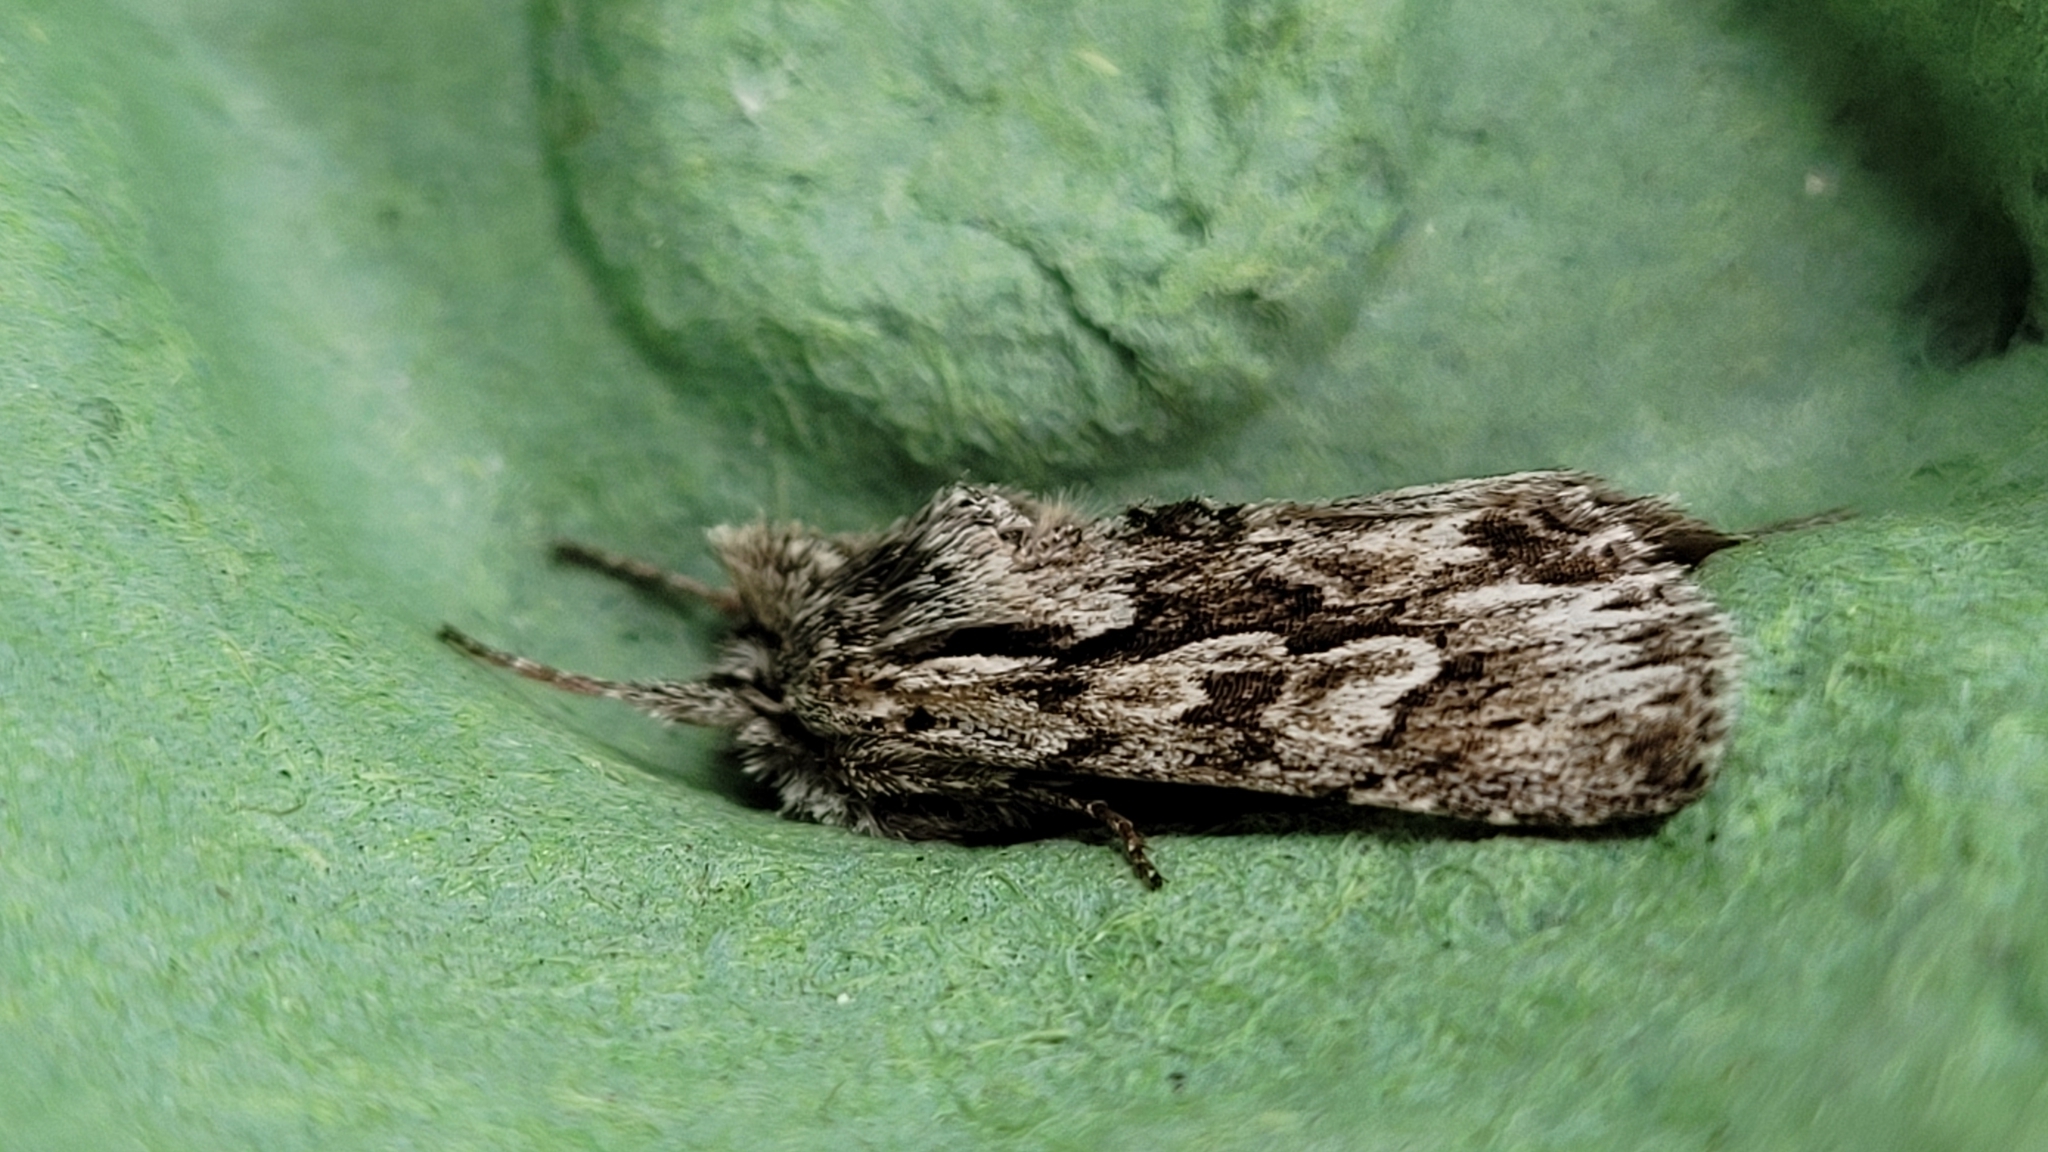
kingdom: Animalia
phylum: Arthropoda
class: Insecta
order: Lepidoptera
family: Noctuidae
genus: Xylocampa
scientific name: Xylocampa areola
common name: Early grey
